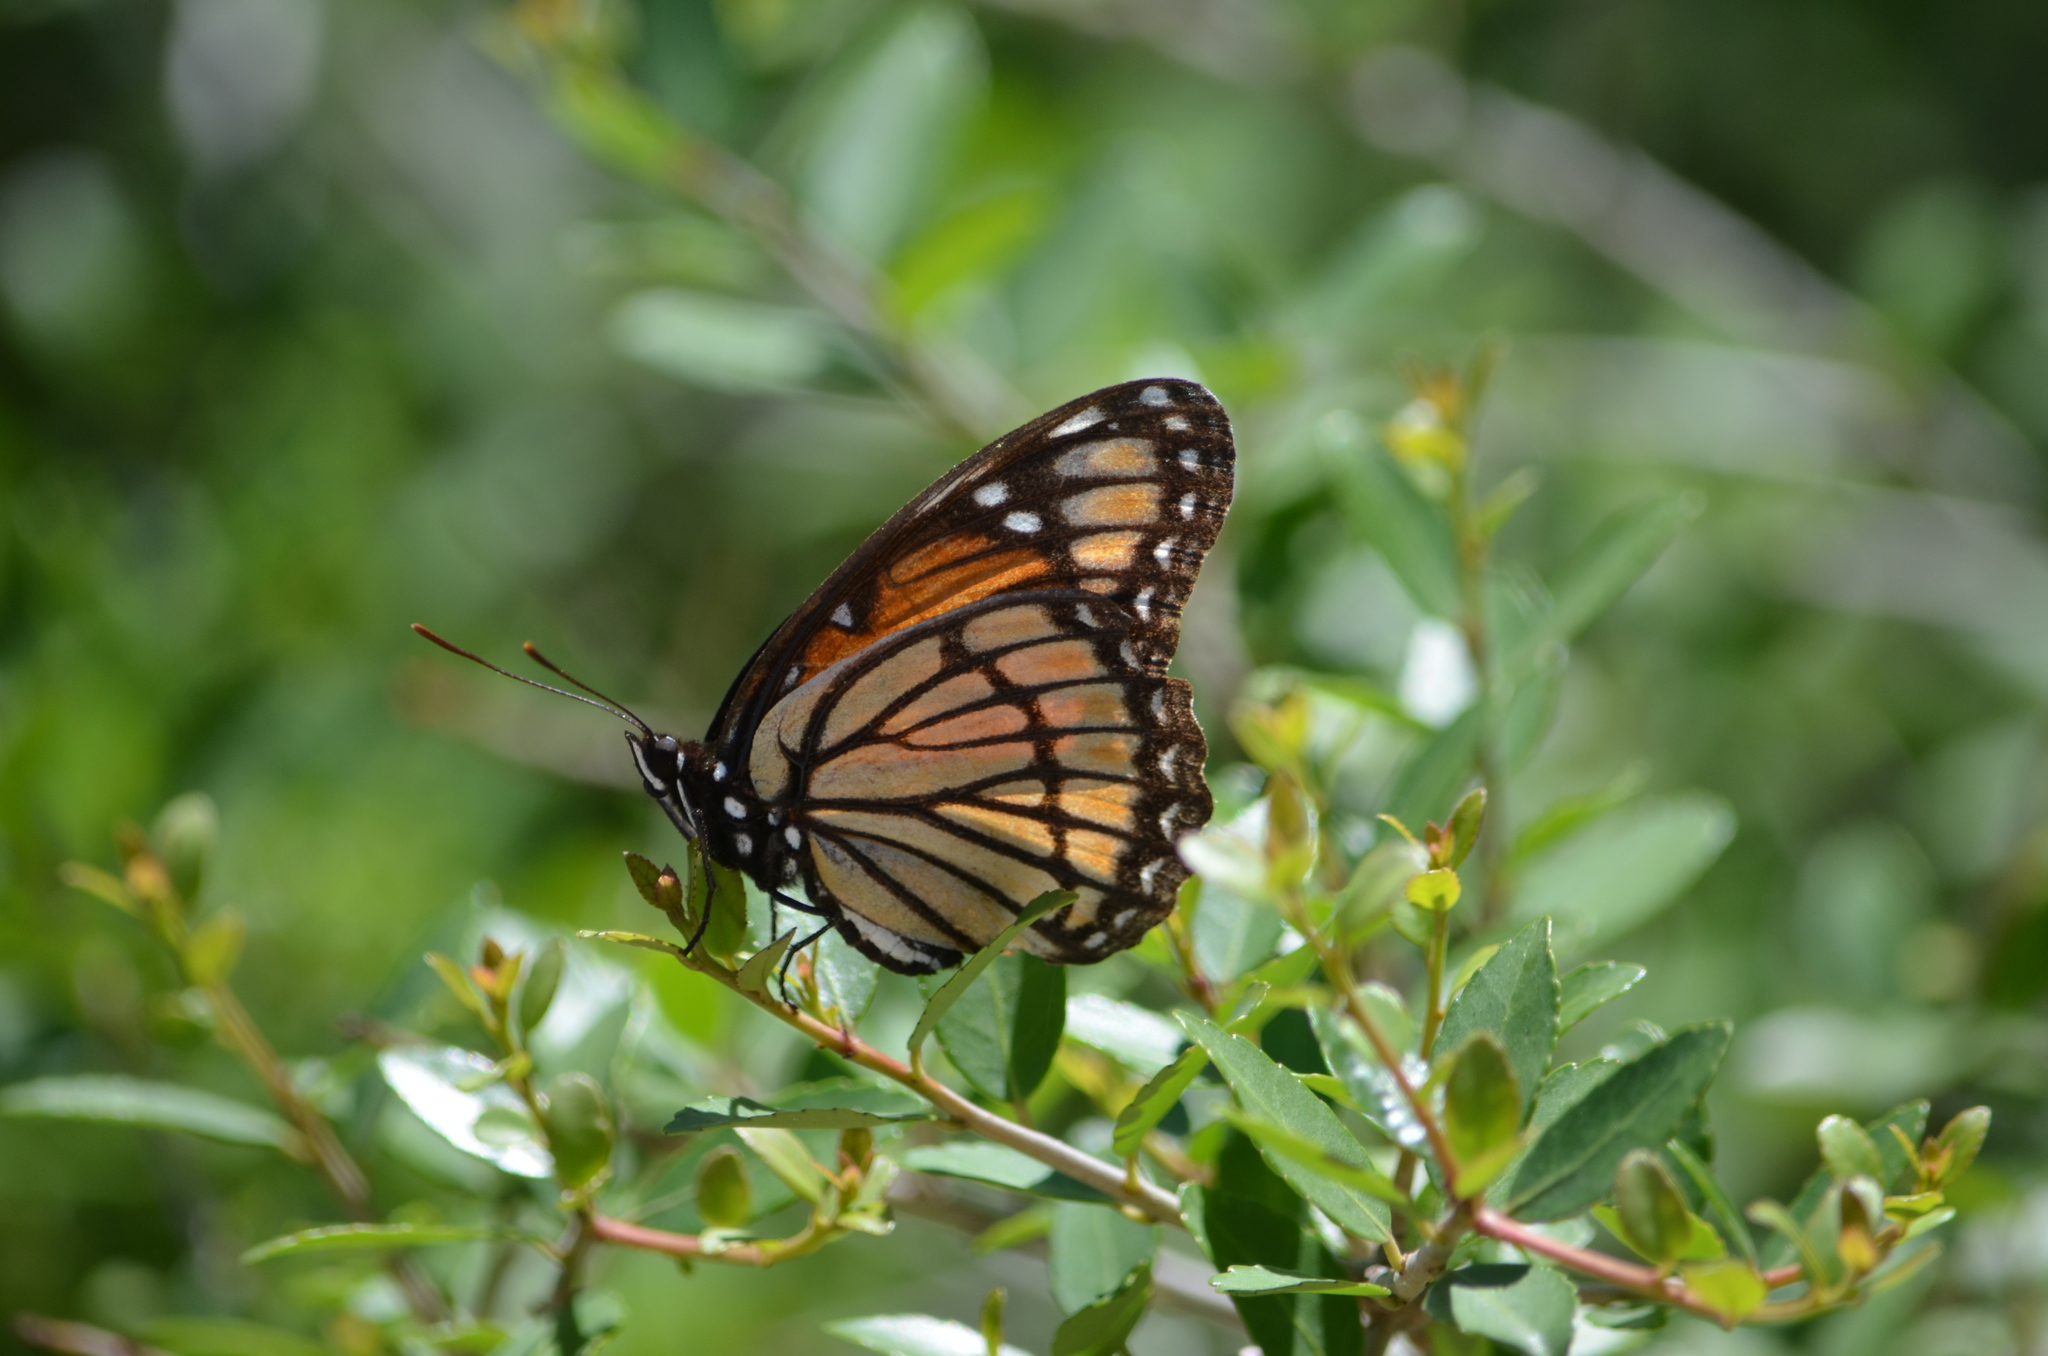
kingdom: Animalia
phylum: Arthropoda
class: Insecta
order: Lepidoptera
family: Nymphalidae
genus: Limenitis
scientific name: Limenitis archippus
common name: Viceroy
